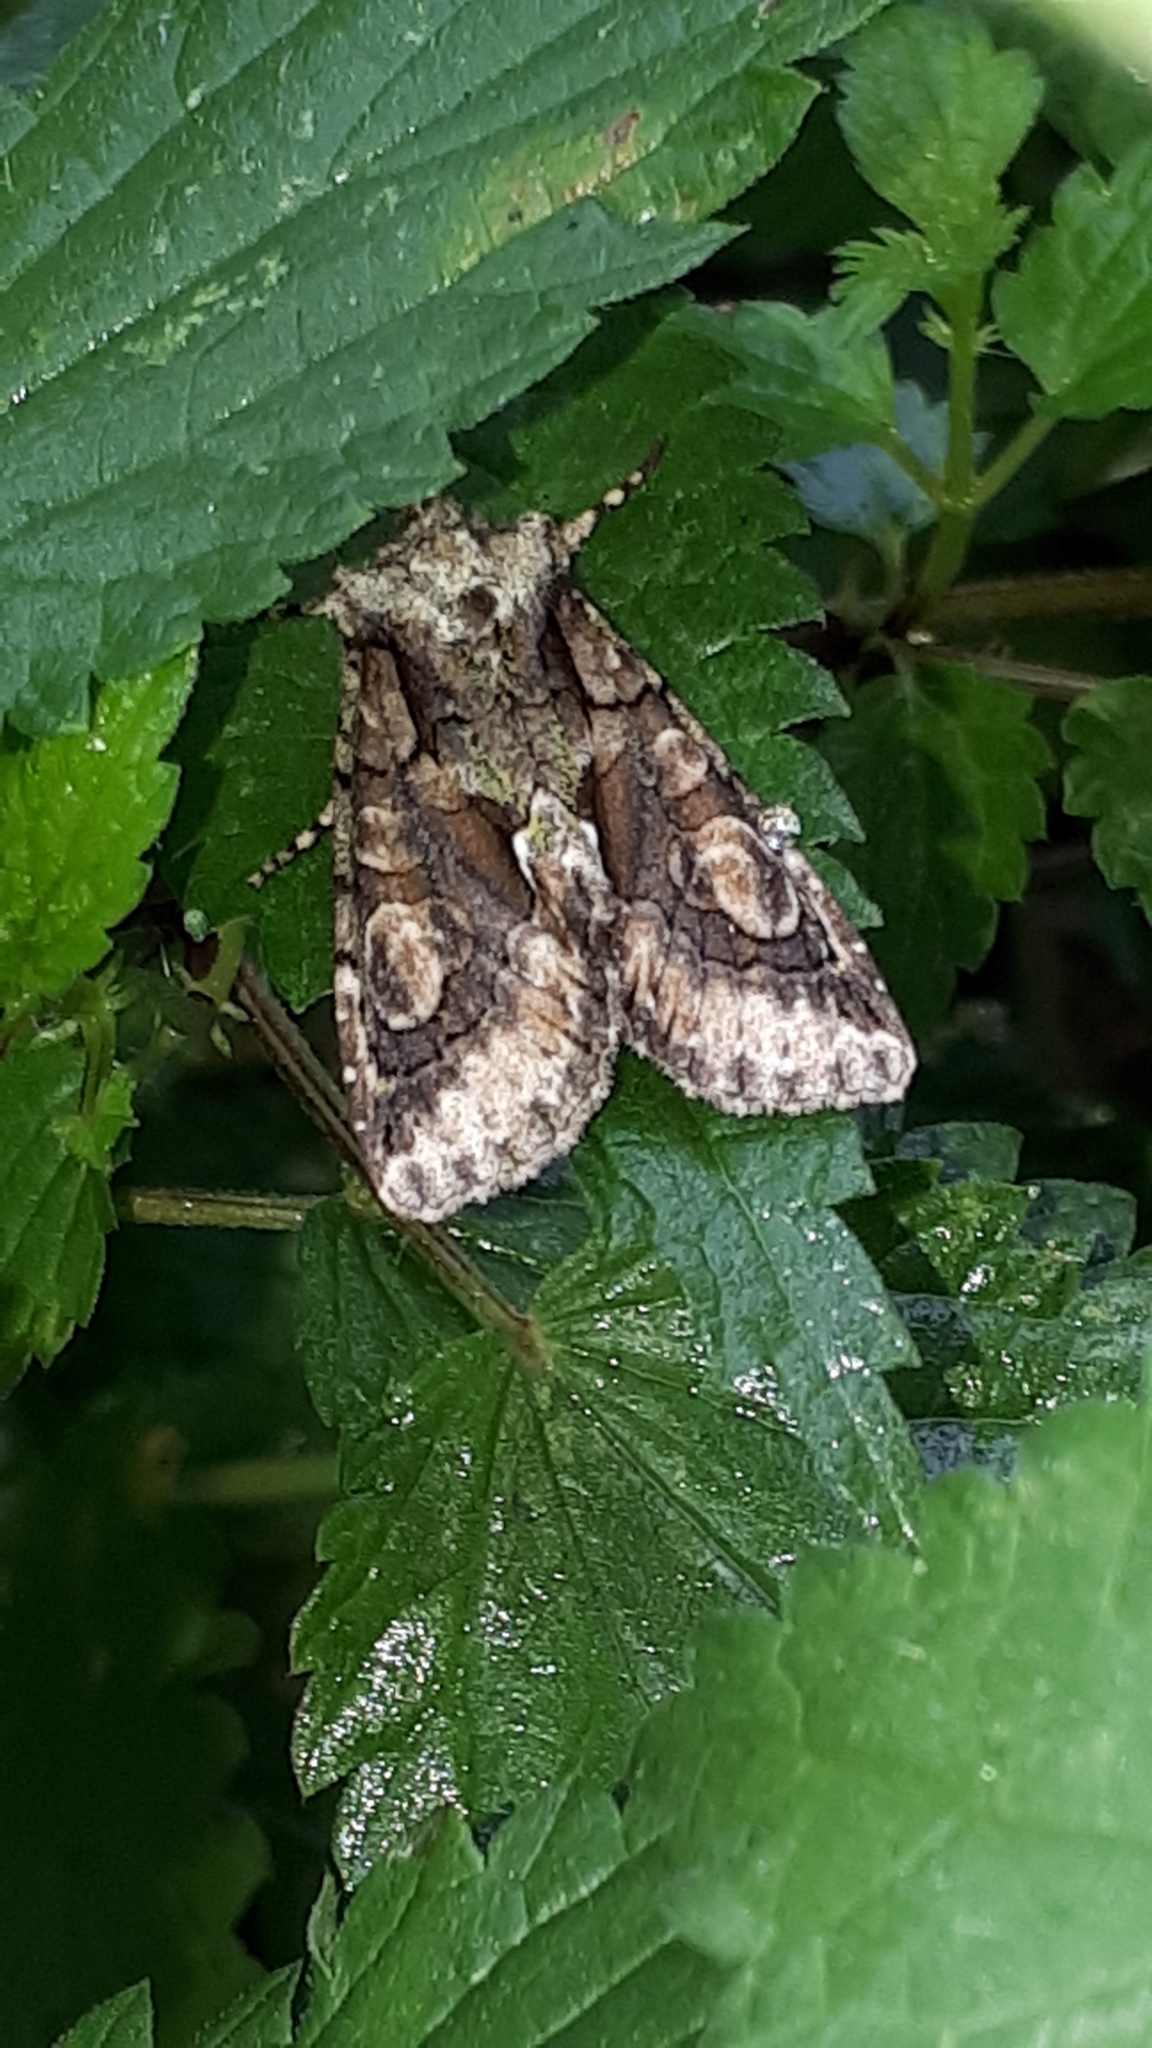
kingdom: Animalia
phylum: Arthropoda
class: Insecta
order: Lepidoptera
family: Noctuidae
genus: Allophyes
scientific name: Allophyes oxyacanthae
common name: Green-brindled crescent
